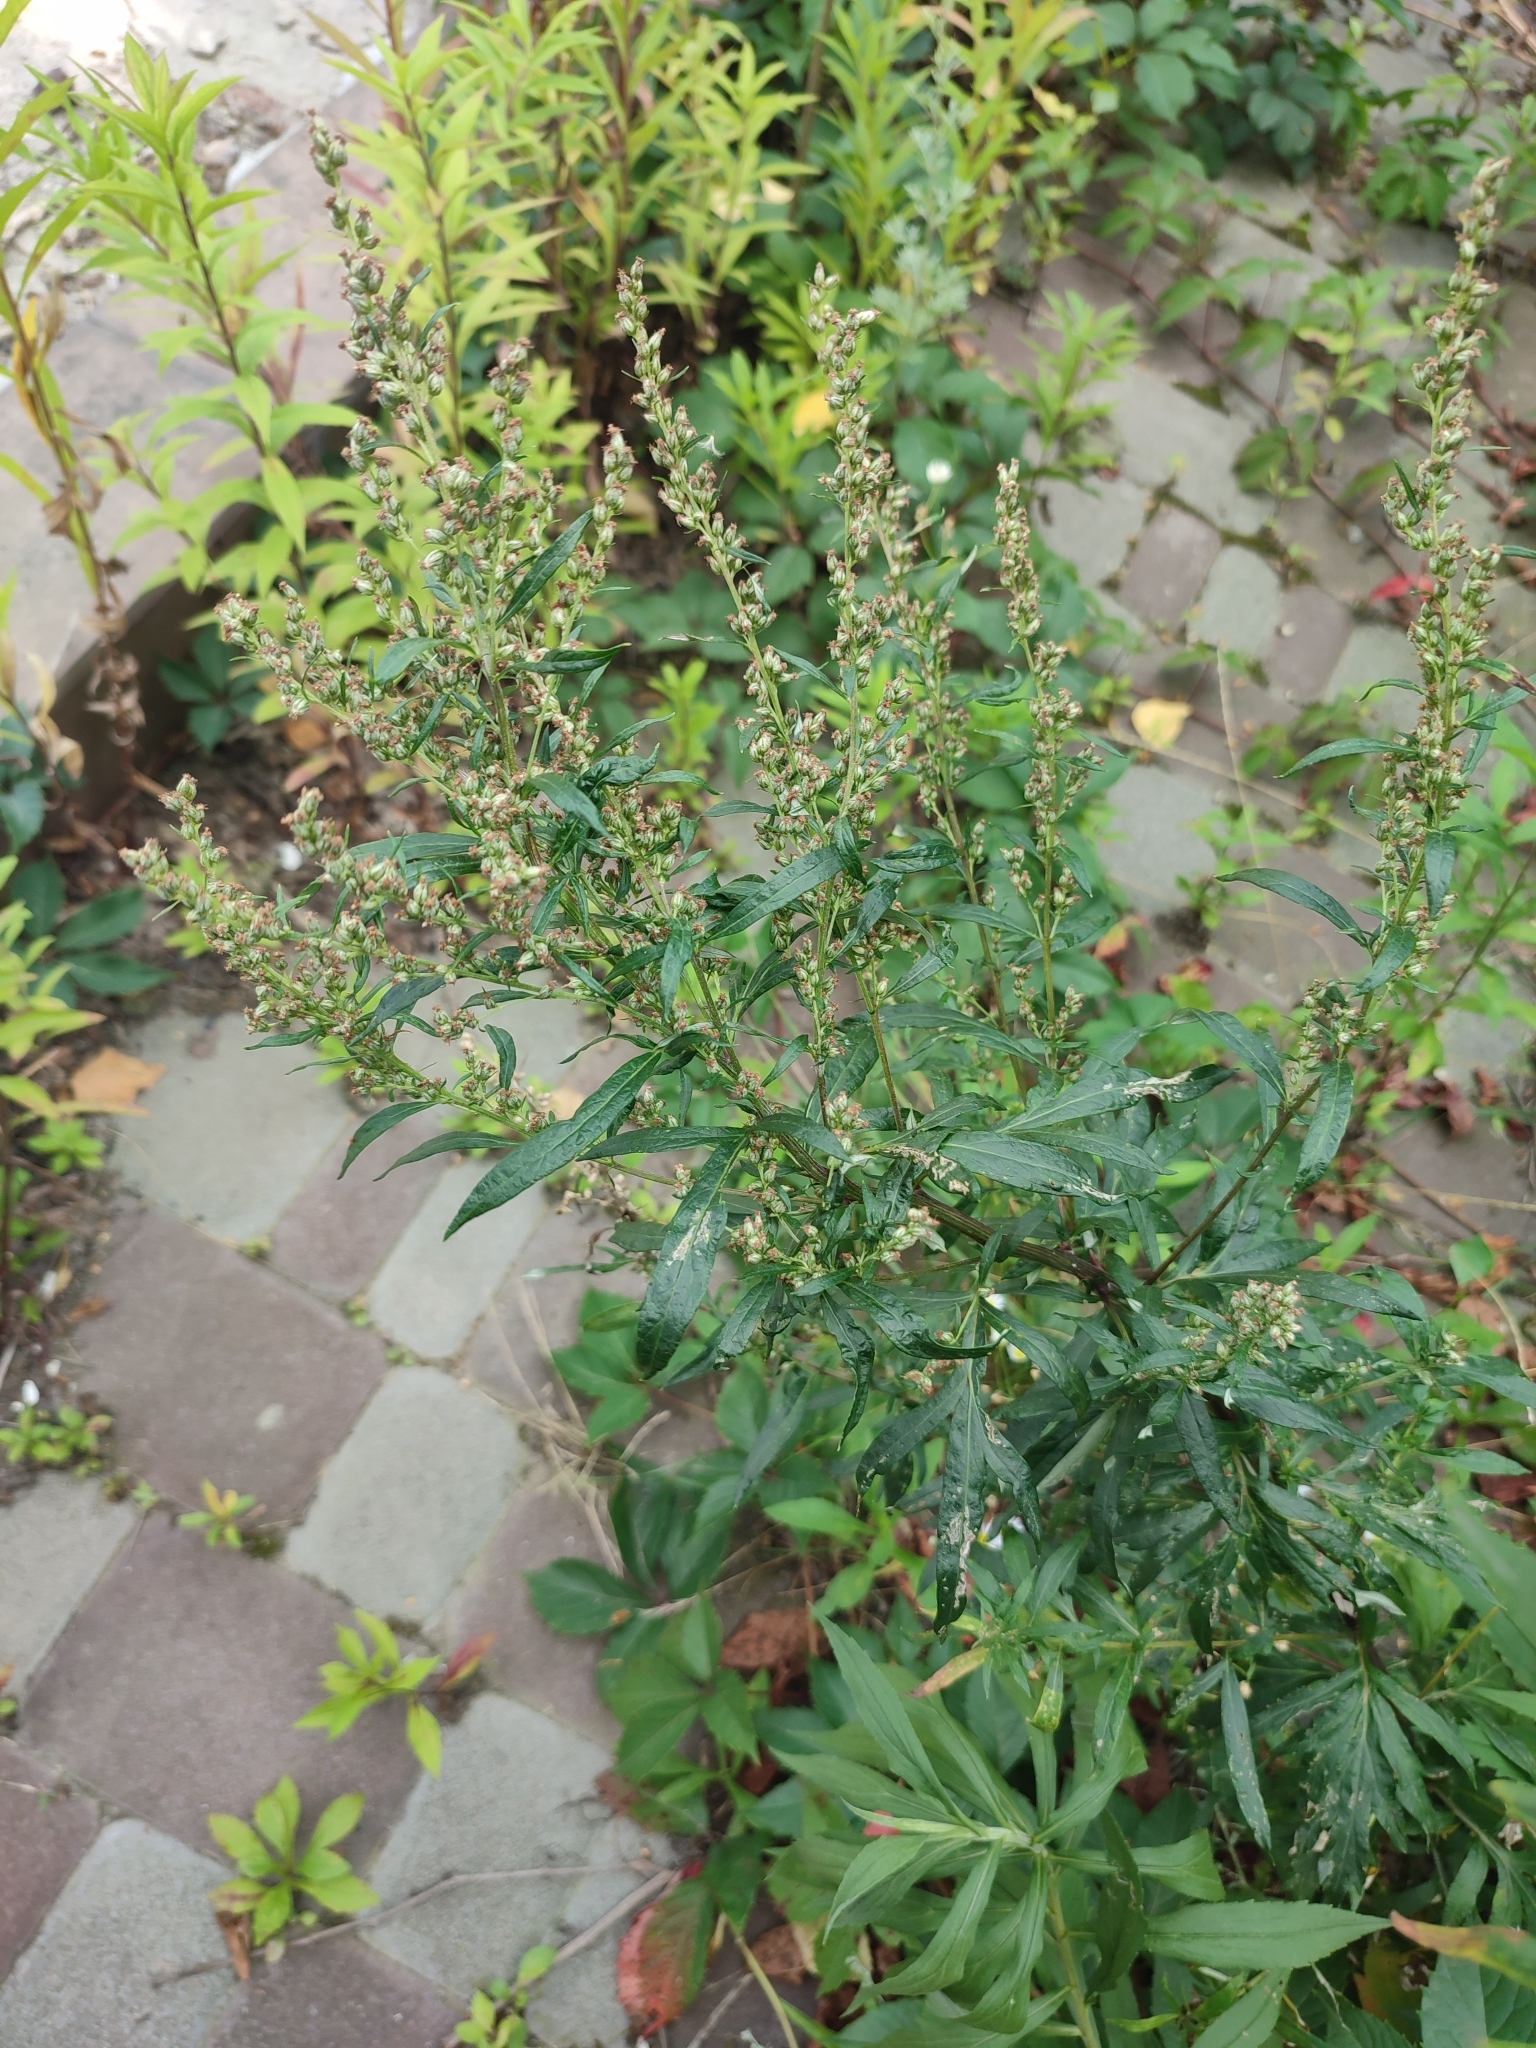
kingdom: Plantae
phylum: Tracheophyta
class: Magnoliopsida
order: Asterales
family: Asteraceae
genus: Artemisia
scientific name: Artemisia vulgaris
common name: Mugwort
